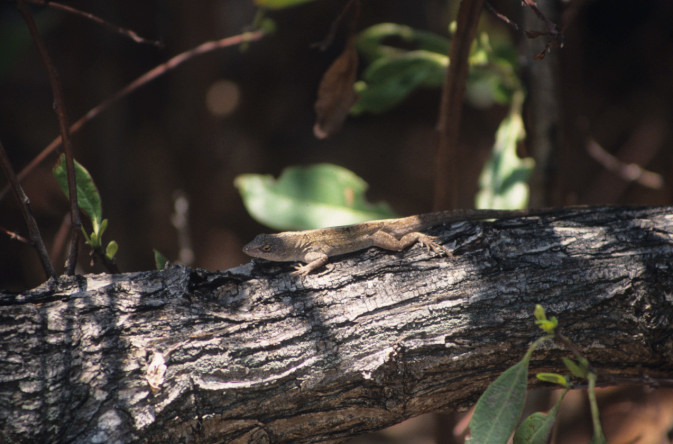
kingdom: Animalia
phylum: Chordata
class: Squamata
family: Dactyloidae
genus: Anolis
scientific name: Anolis sagrei
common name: Brown anole
